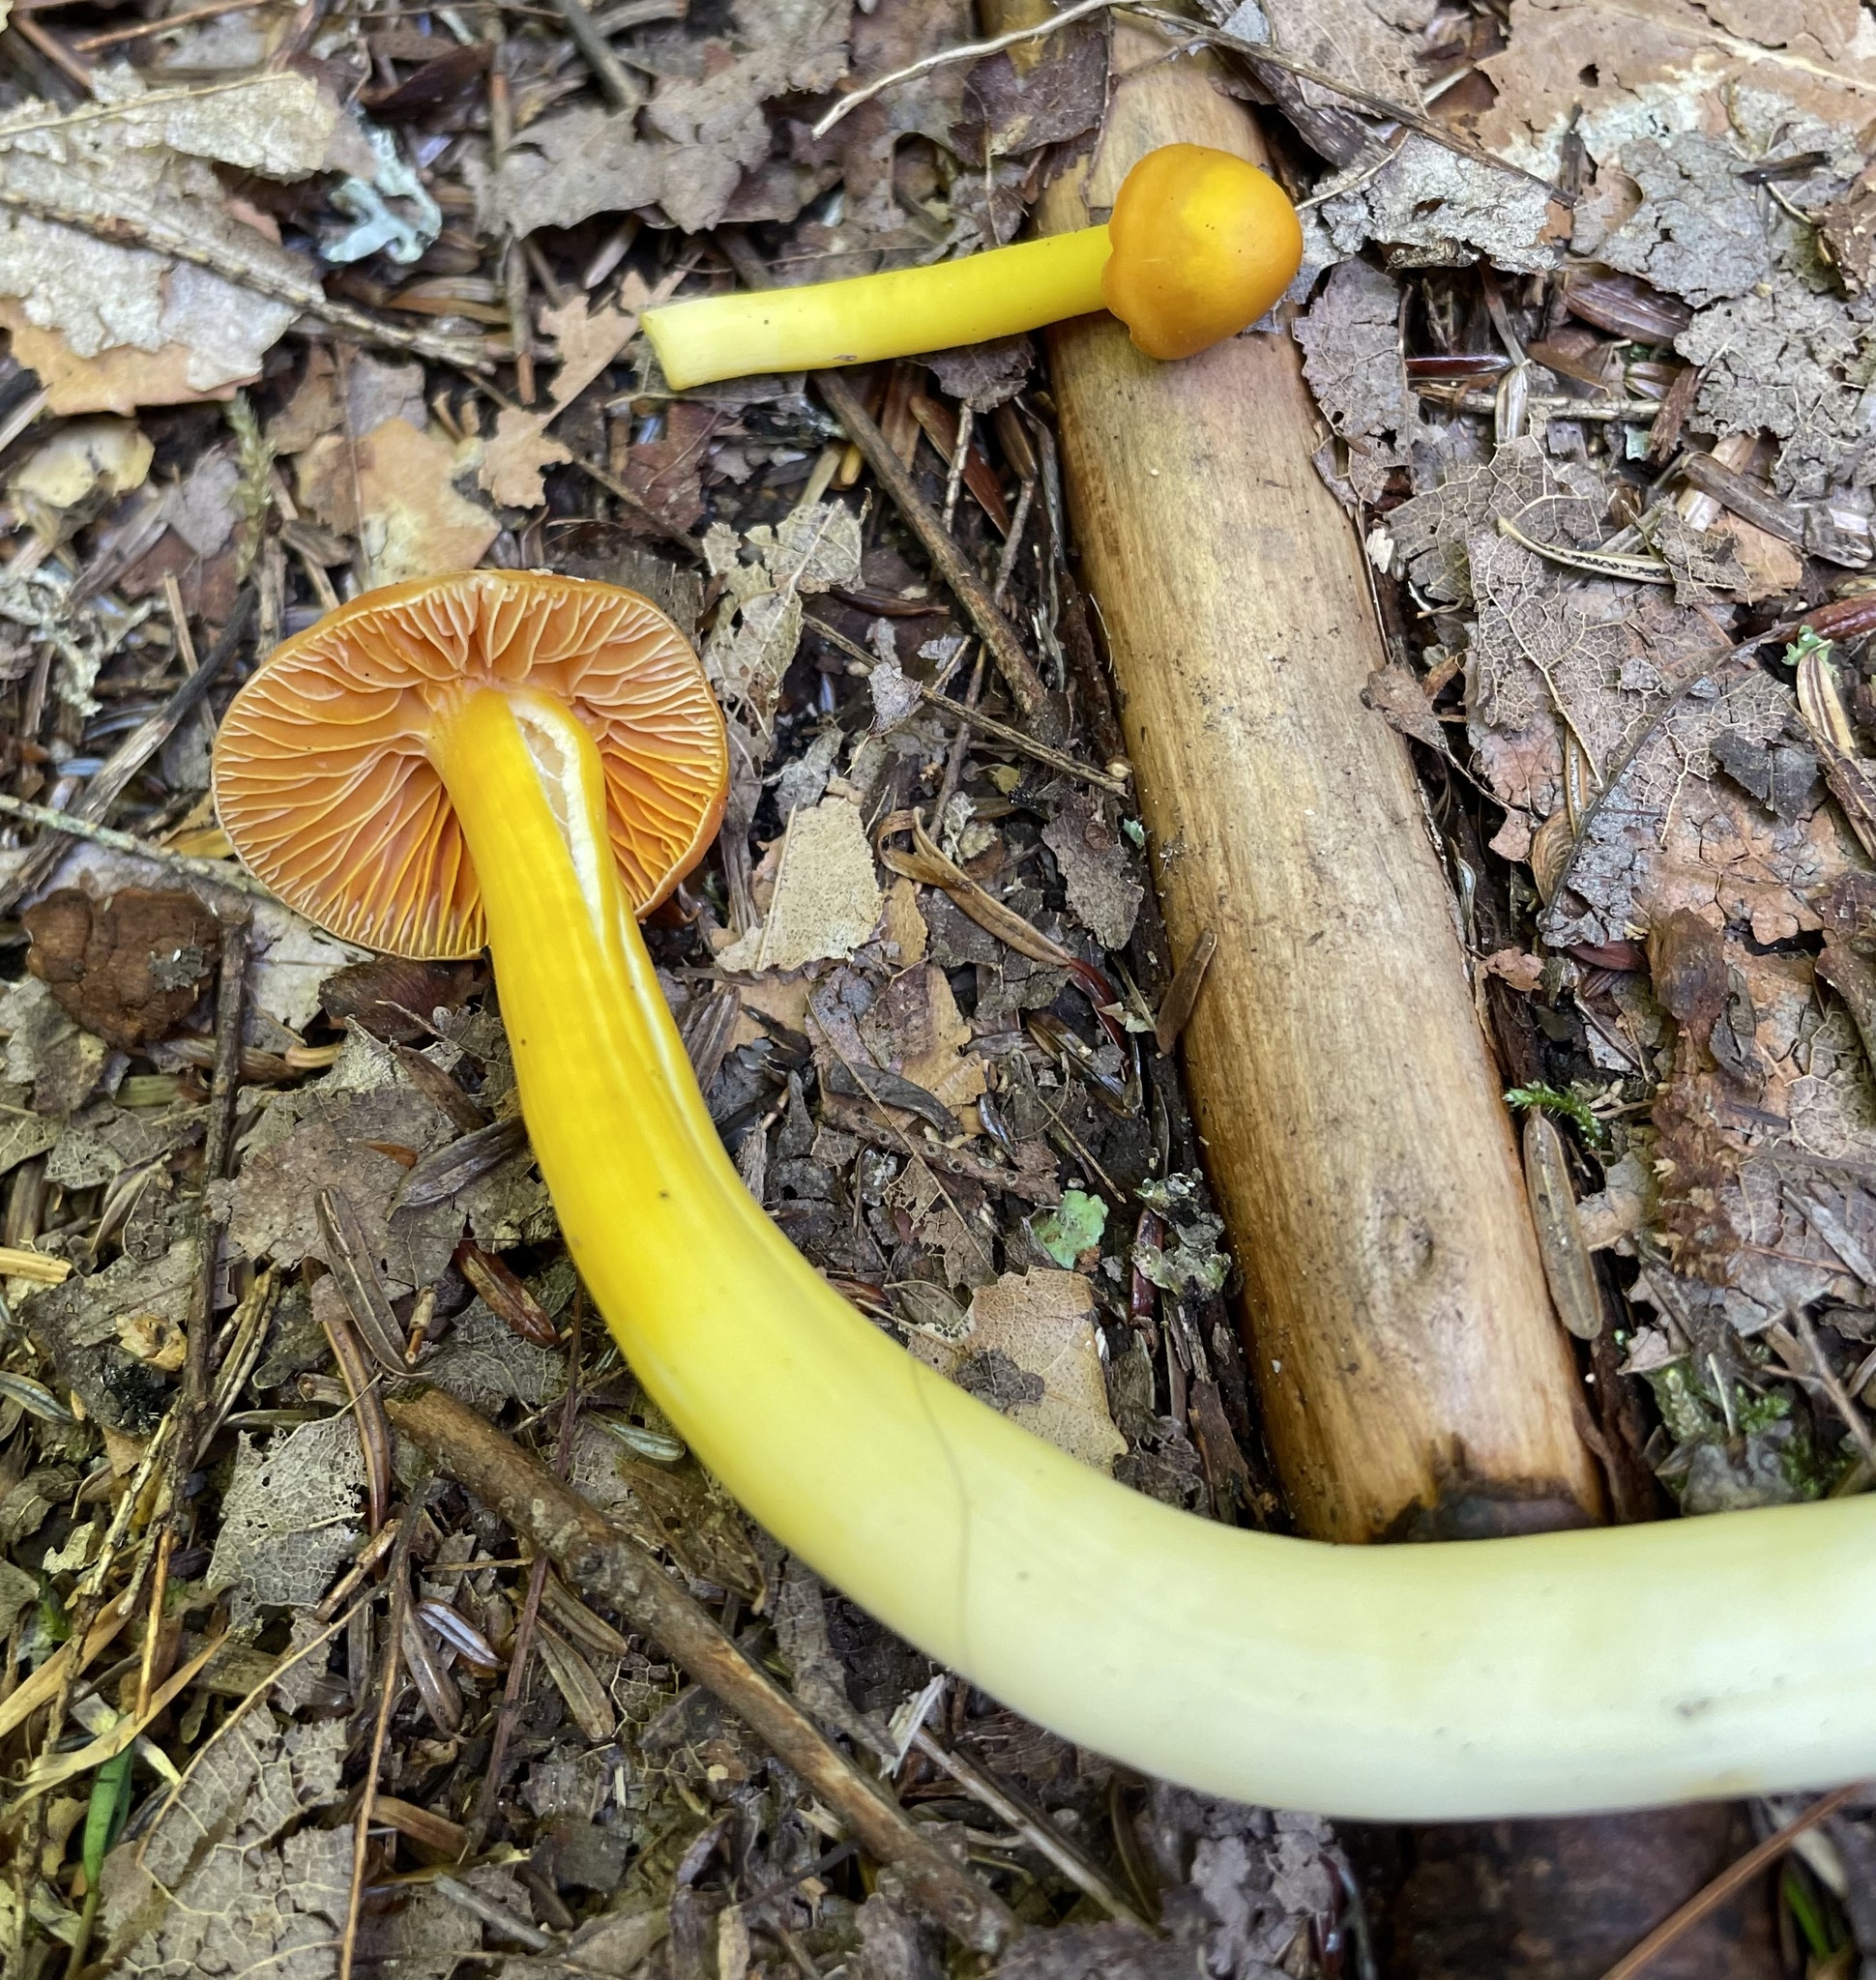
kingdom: Fungi
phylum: Basidiomycota
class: Agaricomycetes
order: Agaricales
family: Hygrophoraceae
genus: Humidicutis
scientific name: Humidicutis marginata
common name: Orange gilled waxcap
